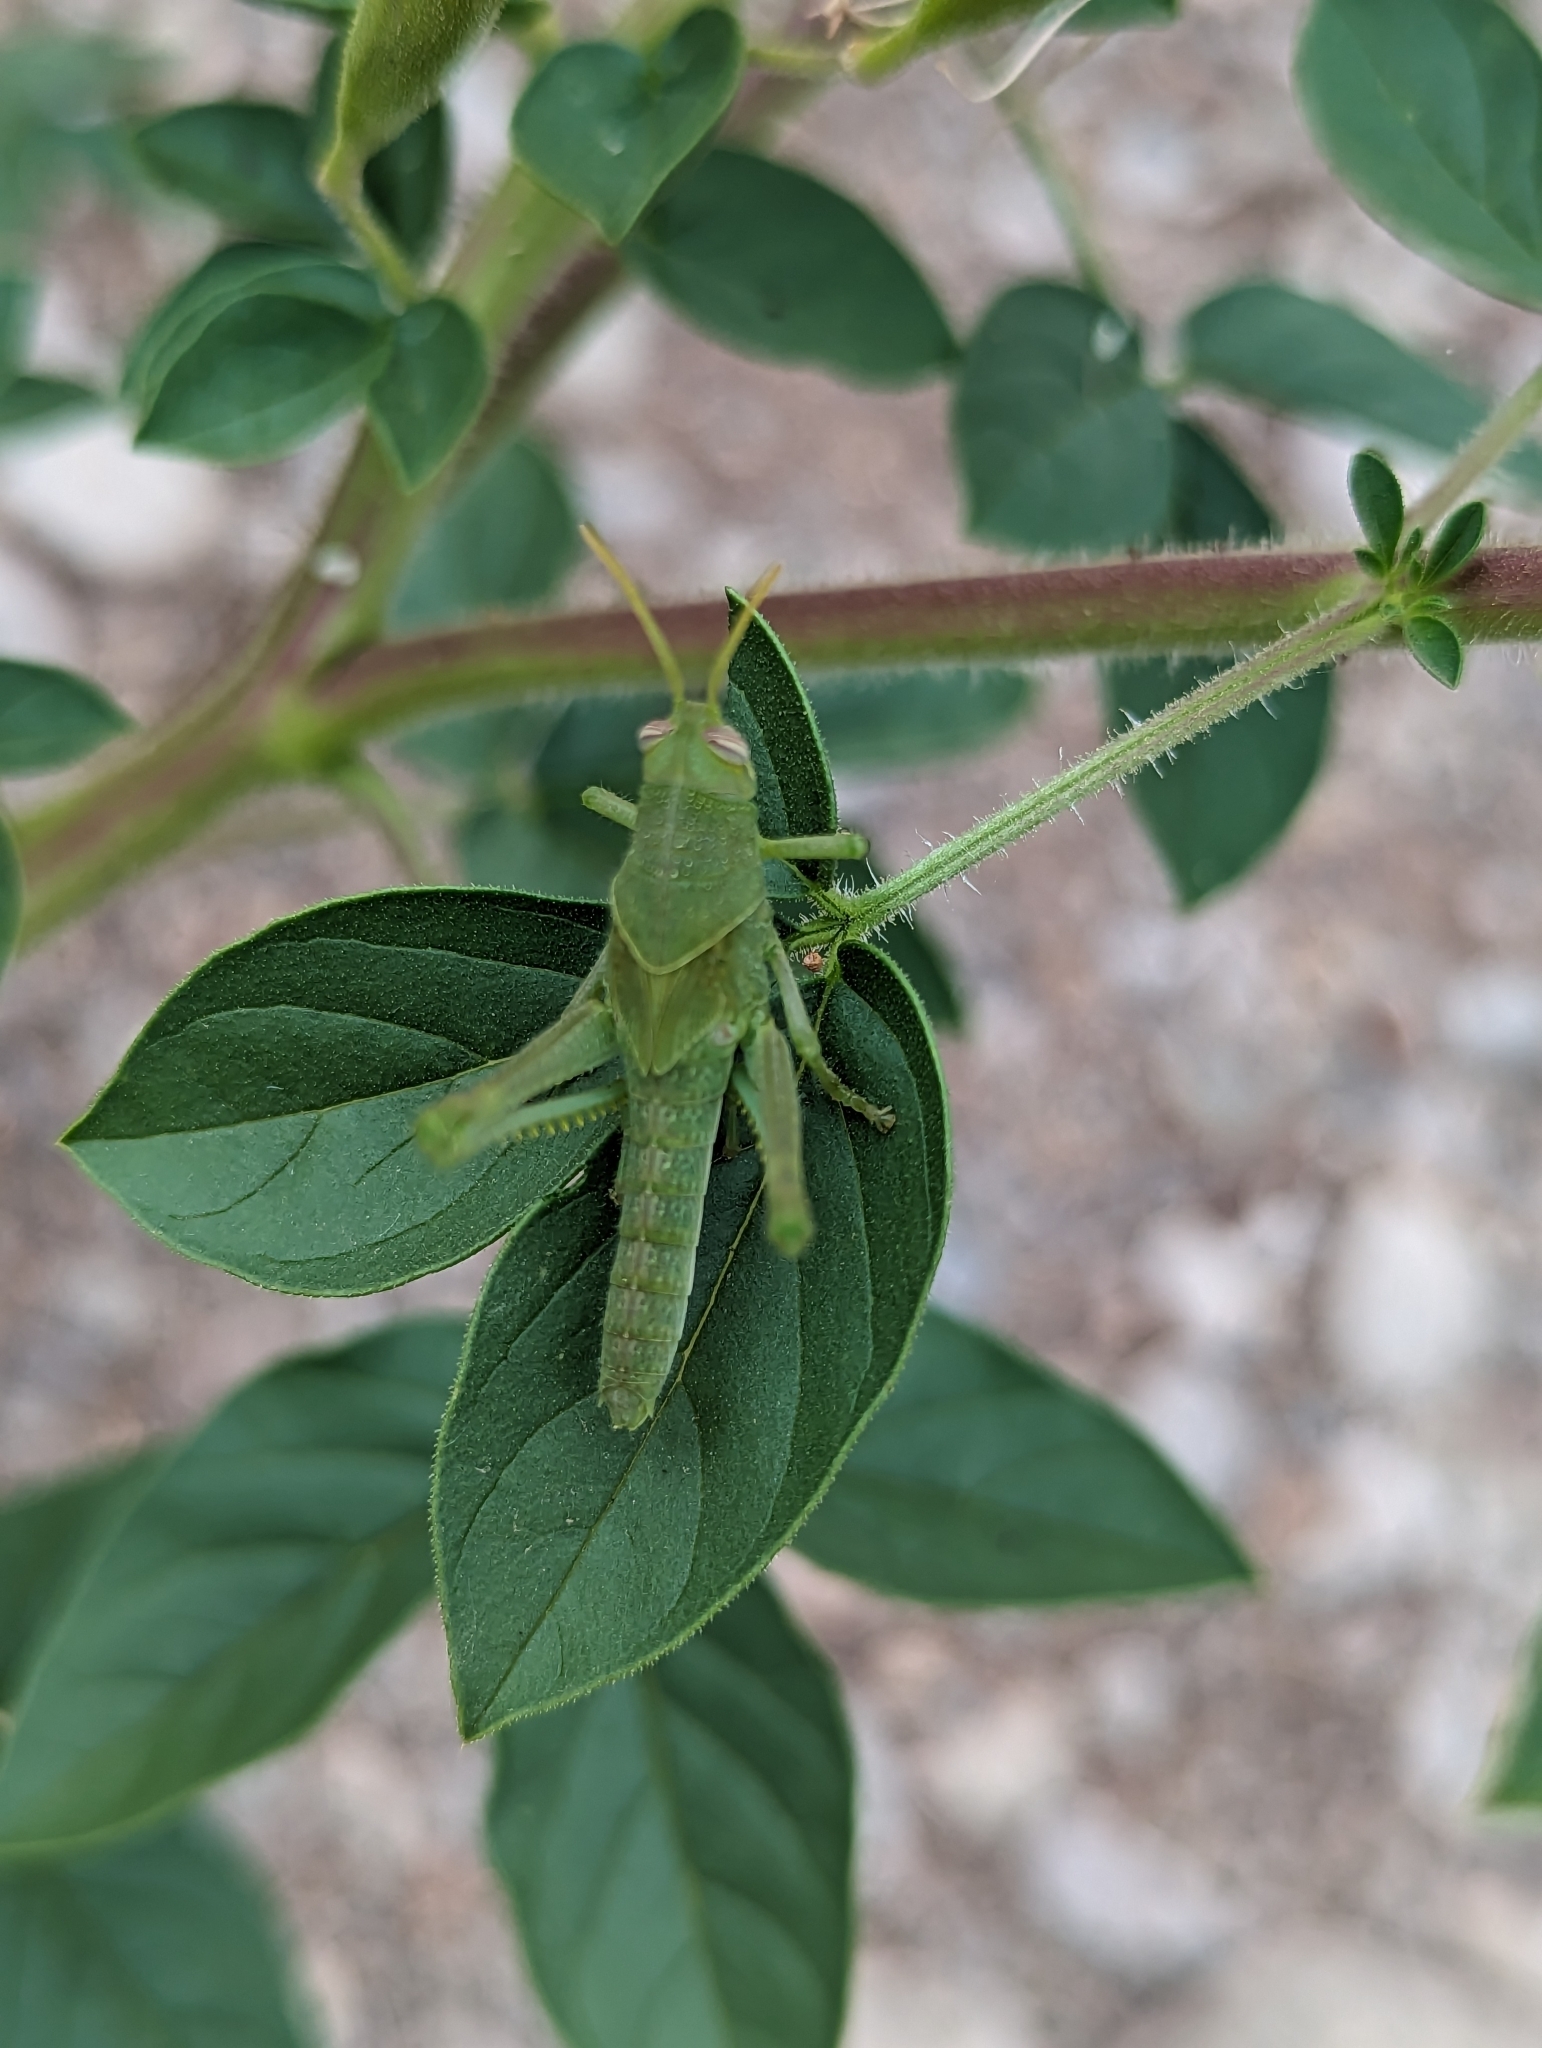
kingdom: Animalia
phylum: Arthropoda
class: Insecta
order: Orthoptera
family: Acrididae
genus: Schistocerca
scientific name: Schistocerca nitens
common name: Vagrant grasshopper
